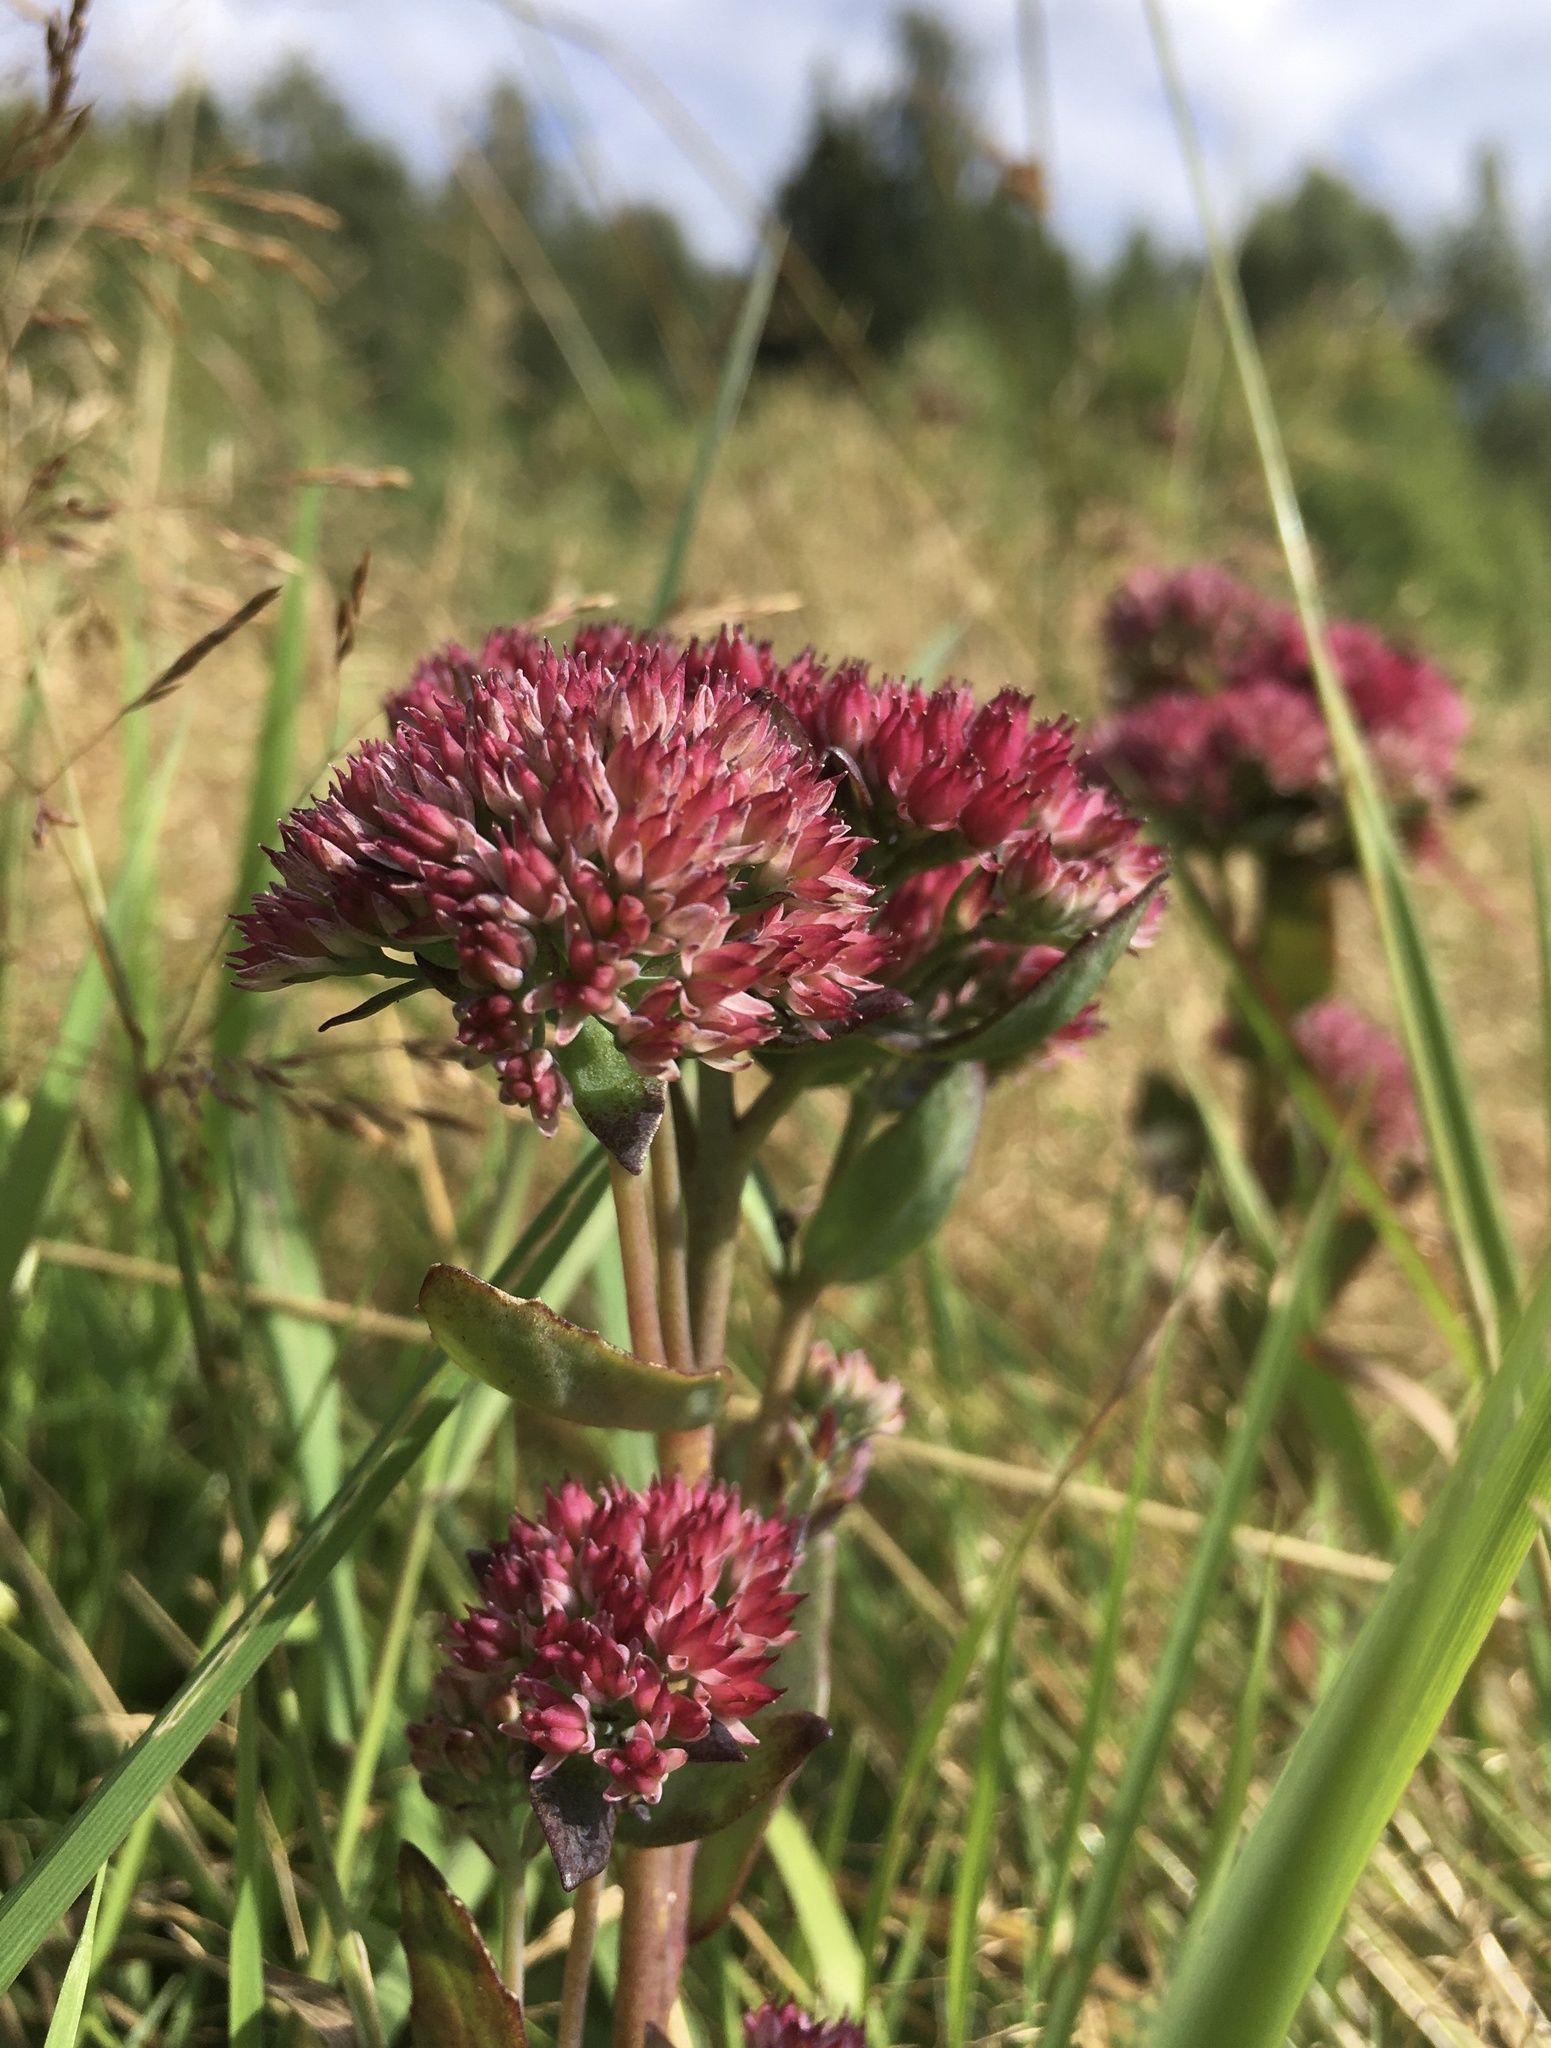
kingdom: Plantae
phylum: Tracheophyta
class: Magnoliopsida
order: Saxifragales
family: Crassulaceae
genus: Hylotelephium
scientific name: Hylotelephium telephium
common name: Live-forever
